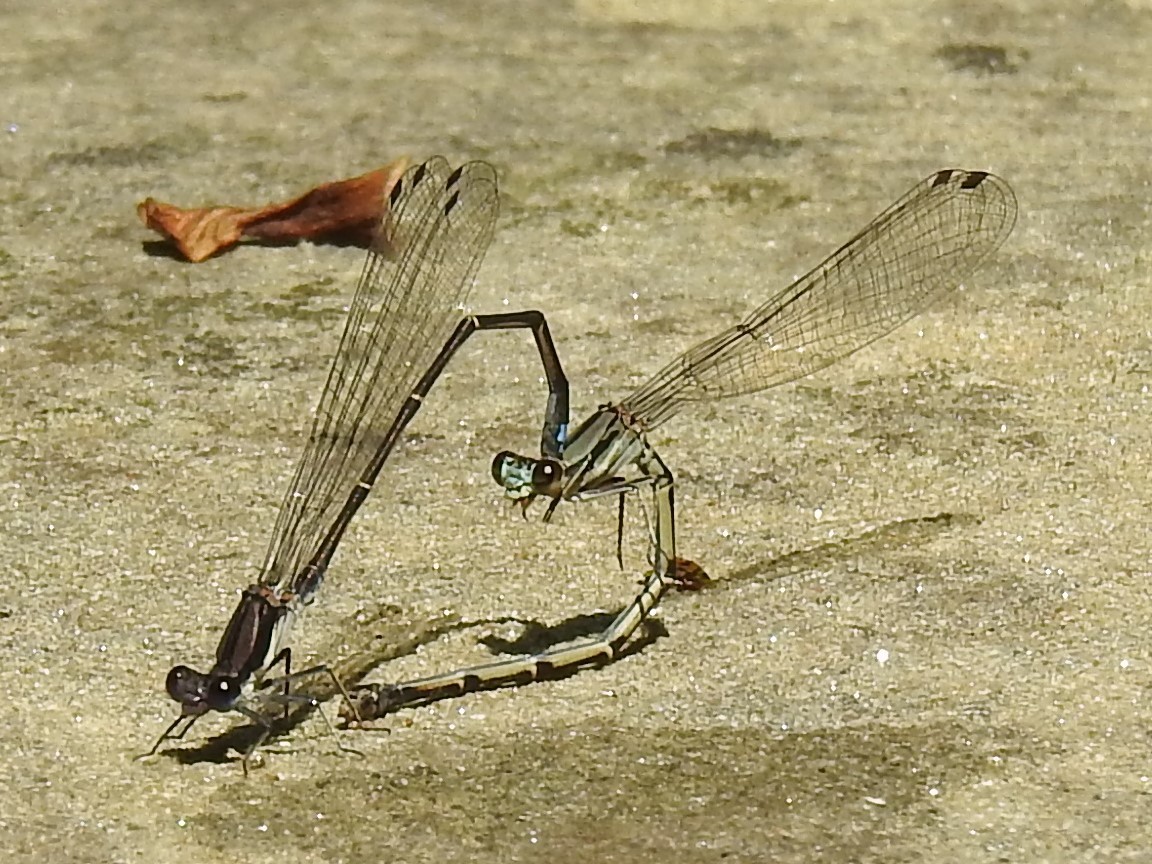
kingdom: Animalia
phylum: Arthropoda
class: Insecta
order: Odonata
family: Coenagrionidae
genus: Argia
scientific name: Argia tibialis
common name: Blue-tipped dancer
